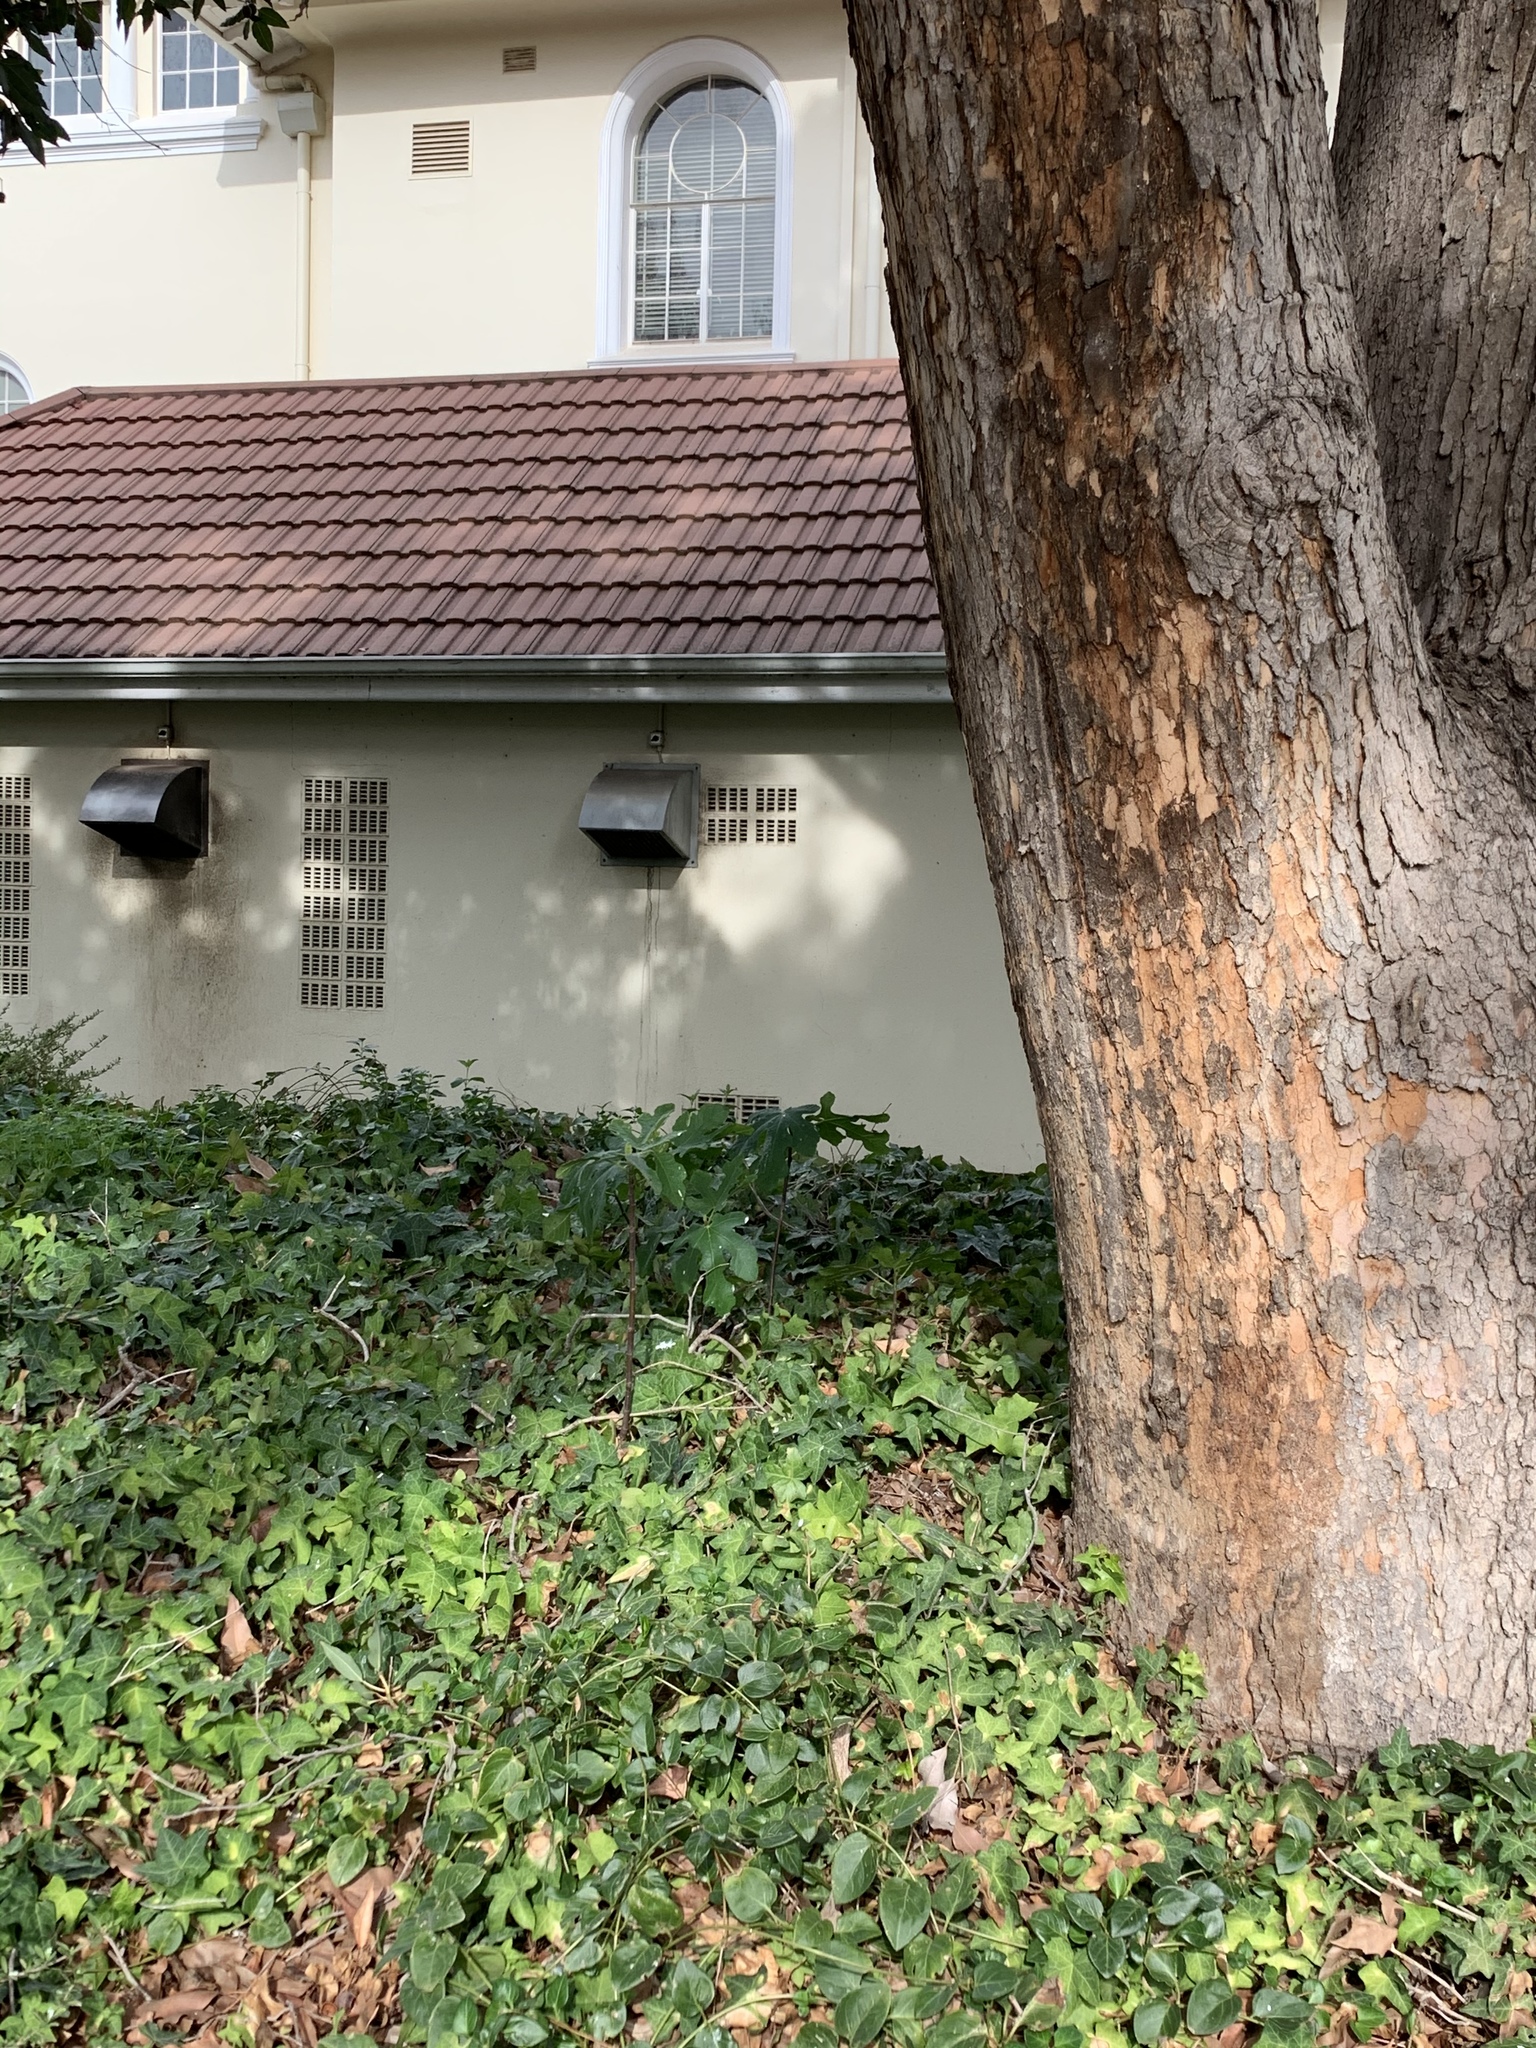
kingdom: Plantae
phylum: Tracheophyta
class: Magnoliopsida
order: Rosales
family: Moraceae
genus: Ficus
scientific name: Ficus carica
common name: Fig
